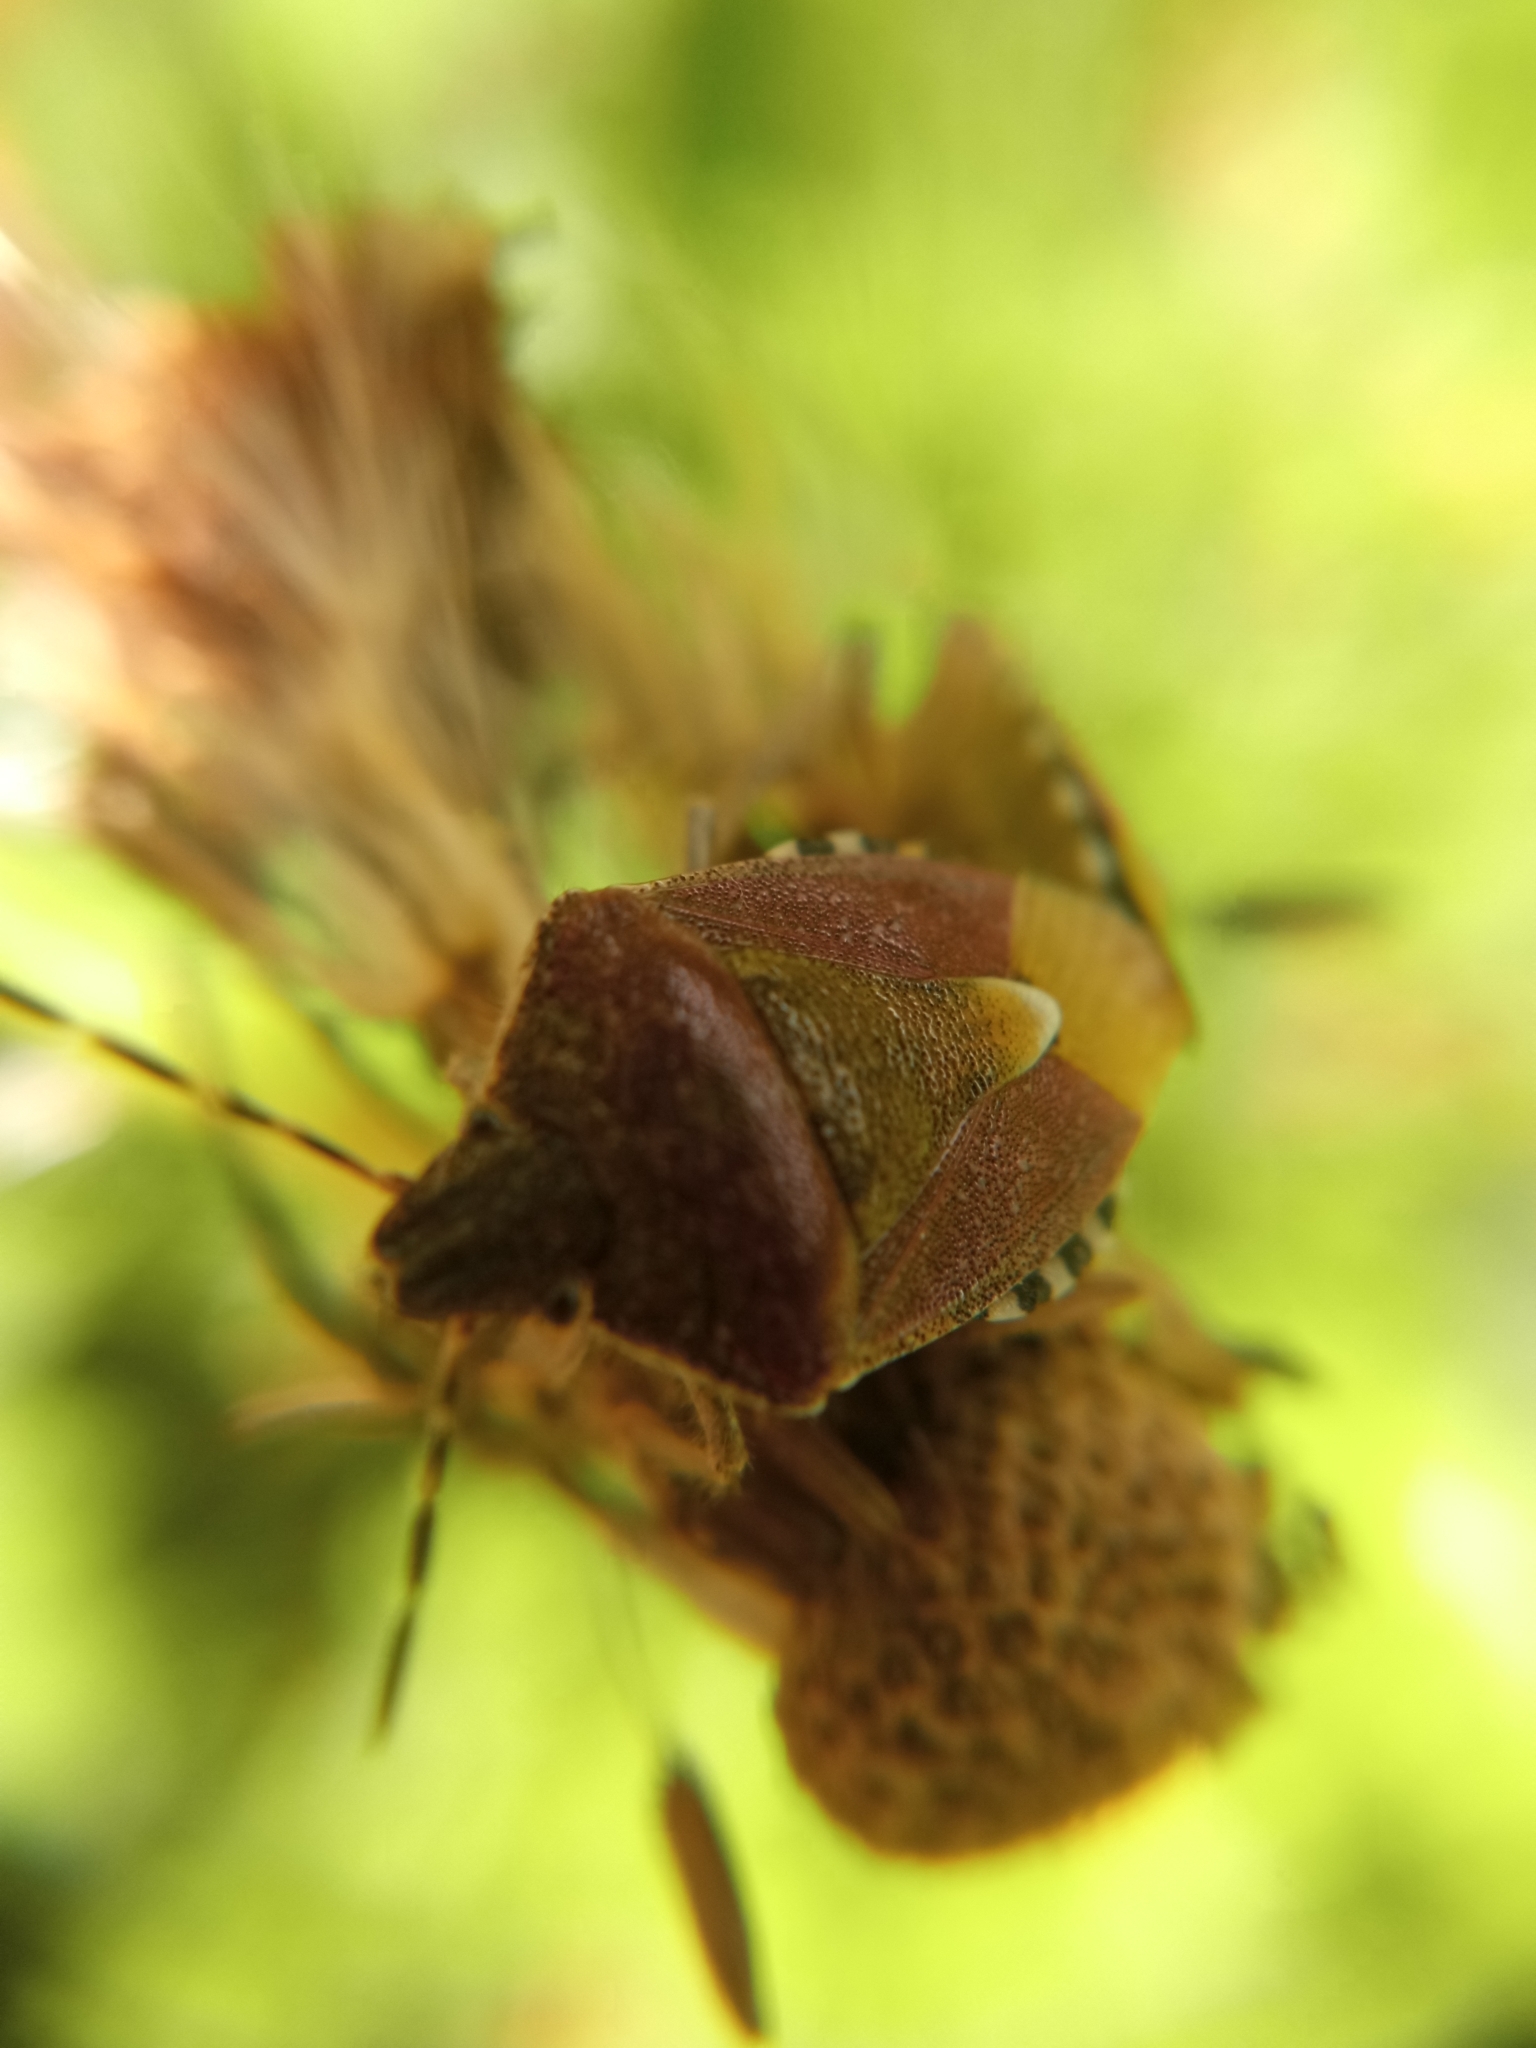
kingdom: Animalia
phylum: Arthropoda
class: Insecta
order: Hemiptera
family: Pentatomidae
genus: Dolycoris
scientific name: Dolycoris baccarum
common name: Sloe bug
